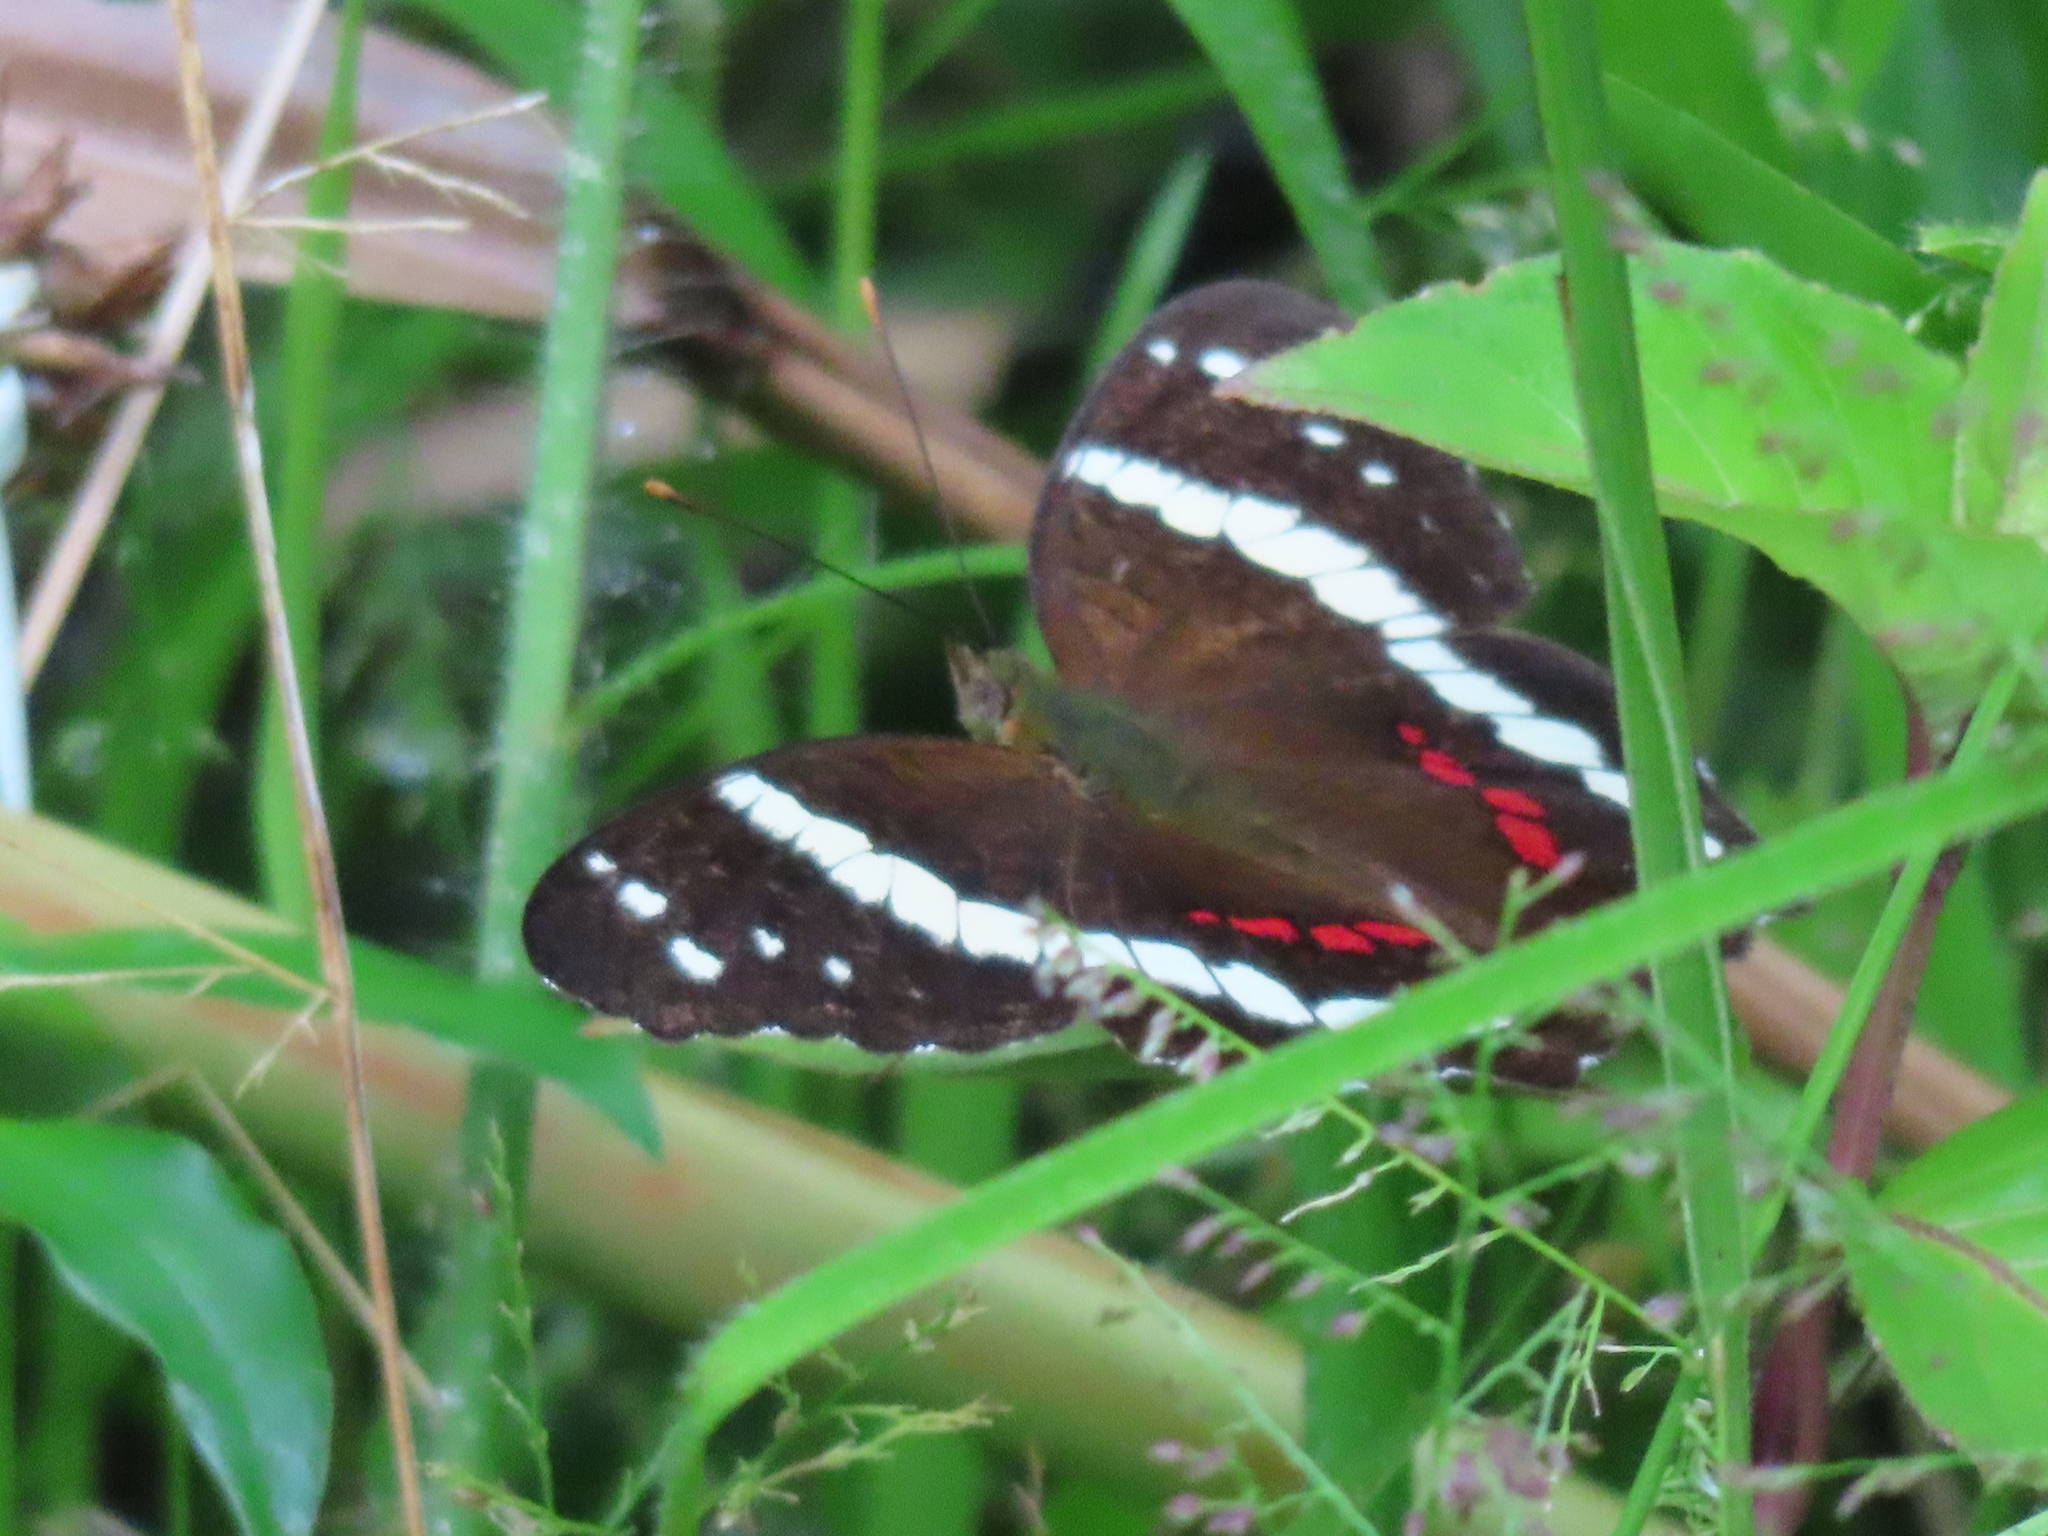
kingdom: Animalia
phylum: Arthropoda
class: Insecta
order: Lepidoptera
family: Nymphalidae
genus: Anartia
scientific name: Anartia fatima
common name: Banded peacock
